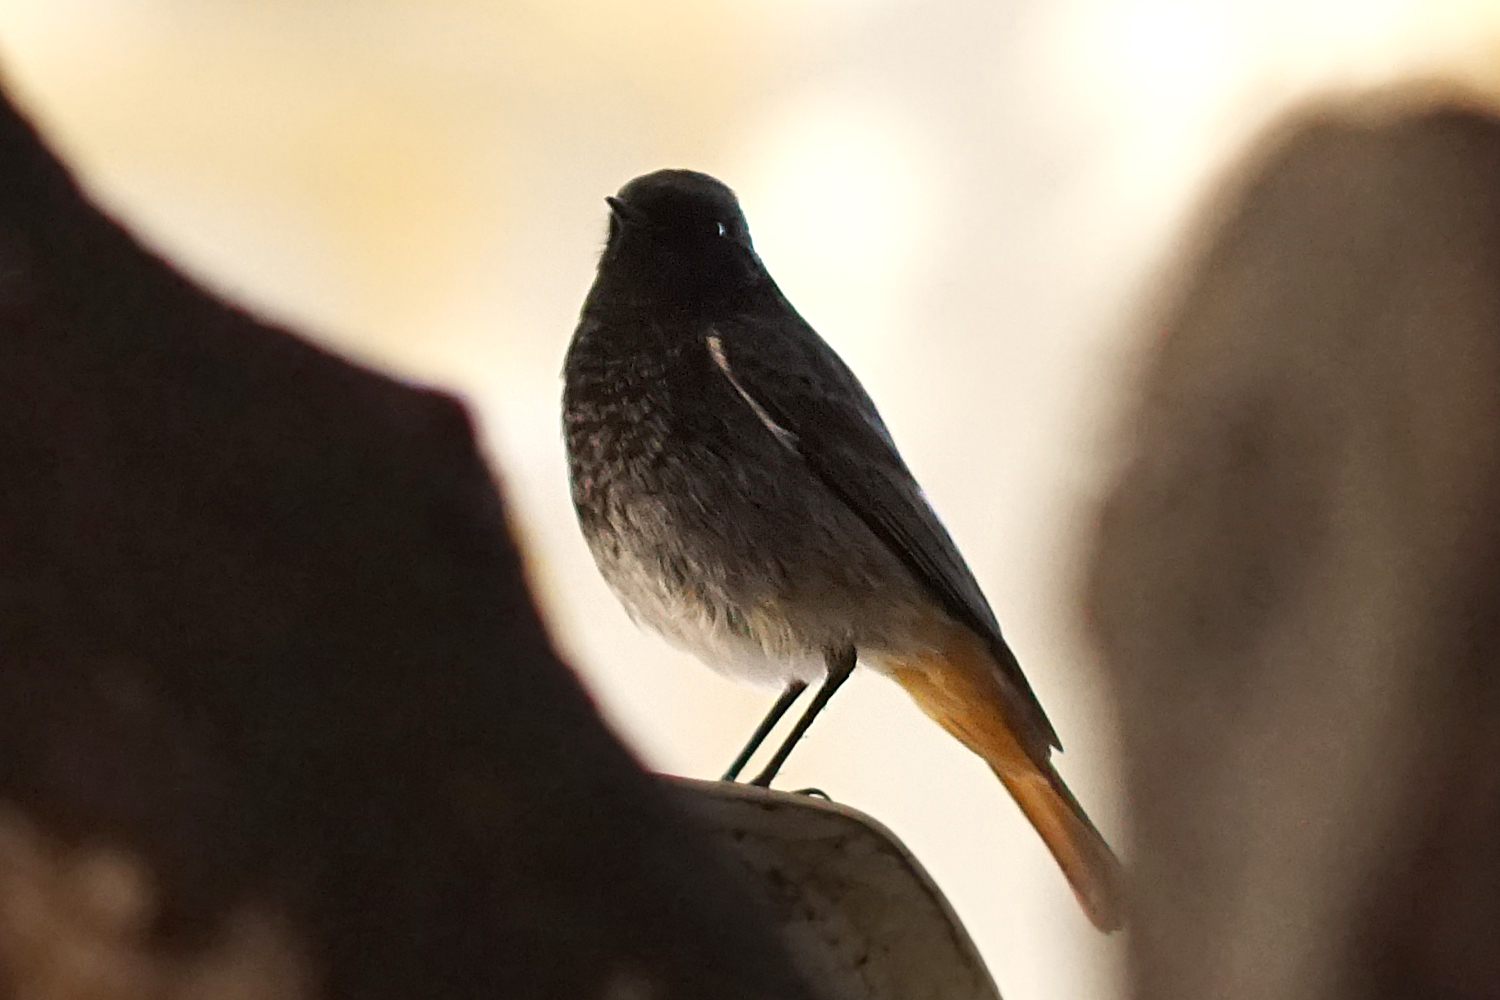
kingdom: Animalia
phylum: Chordata
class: Aves
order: Passeriformes
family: Muscicapidae
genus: Phoenicurus
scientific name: Phoenicurus ochruros
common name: Black redstart
